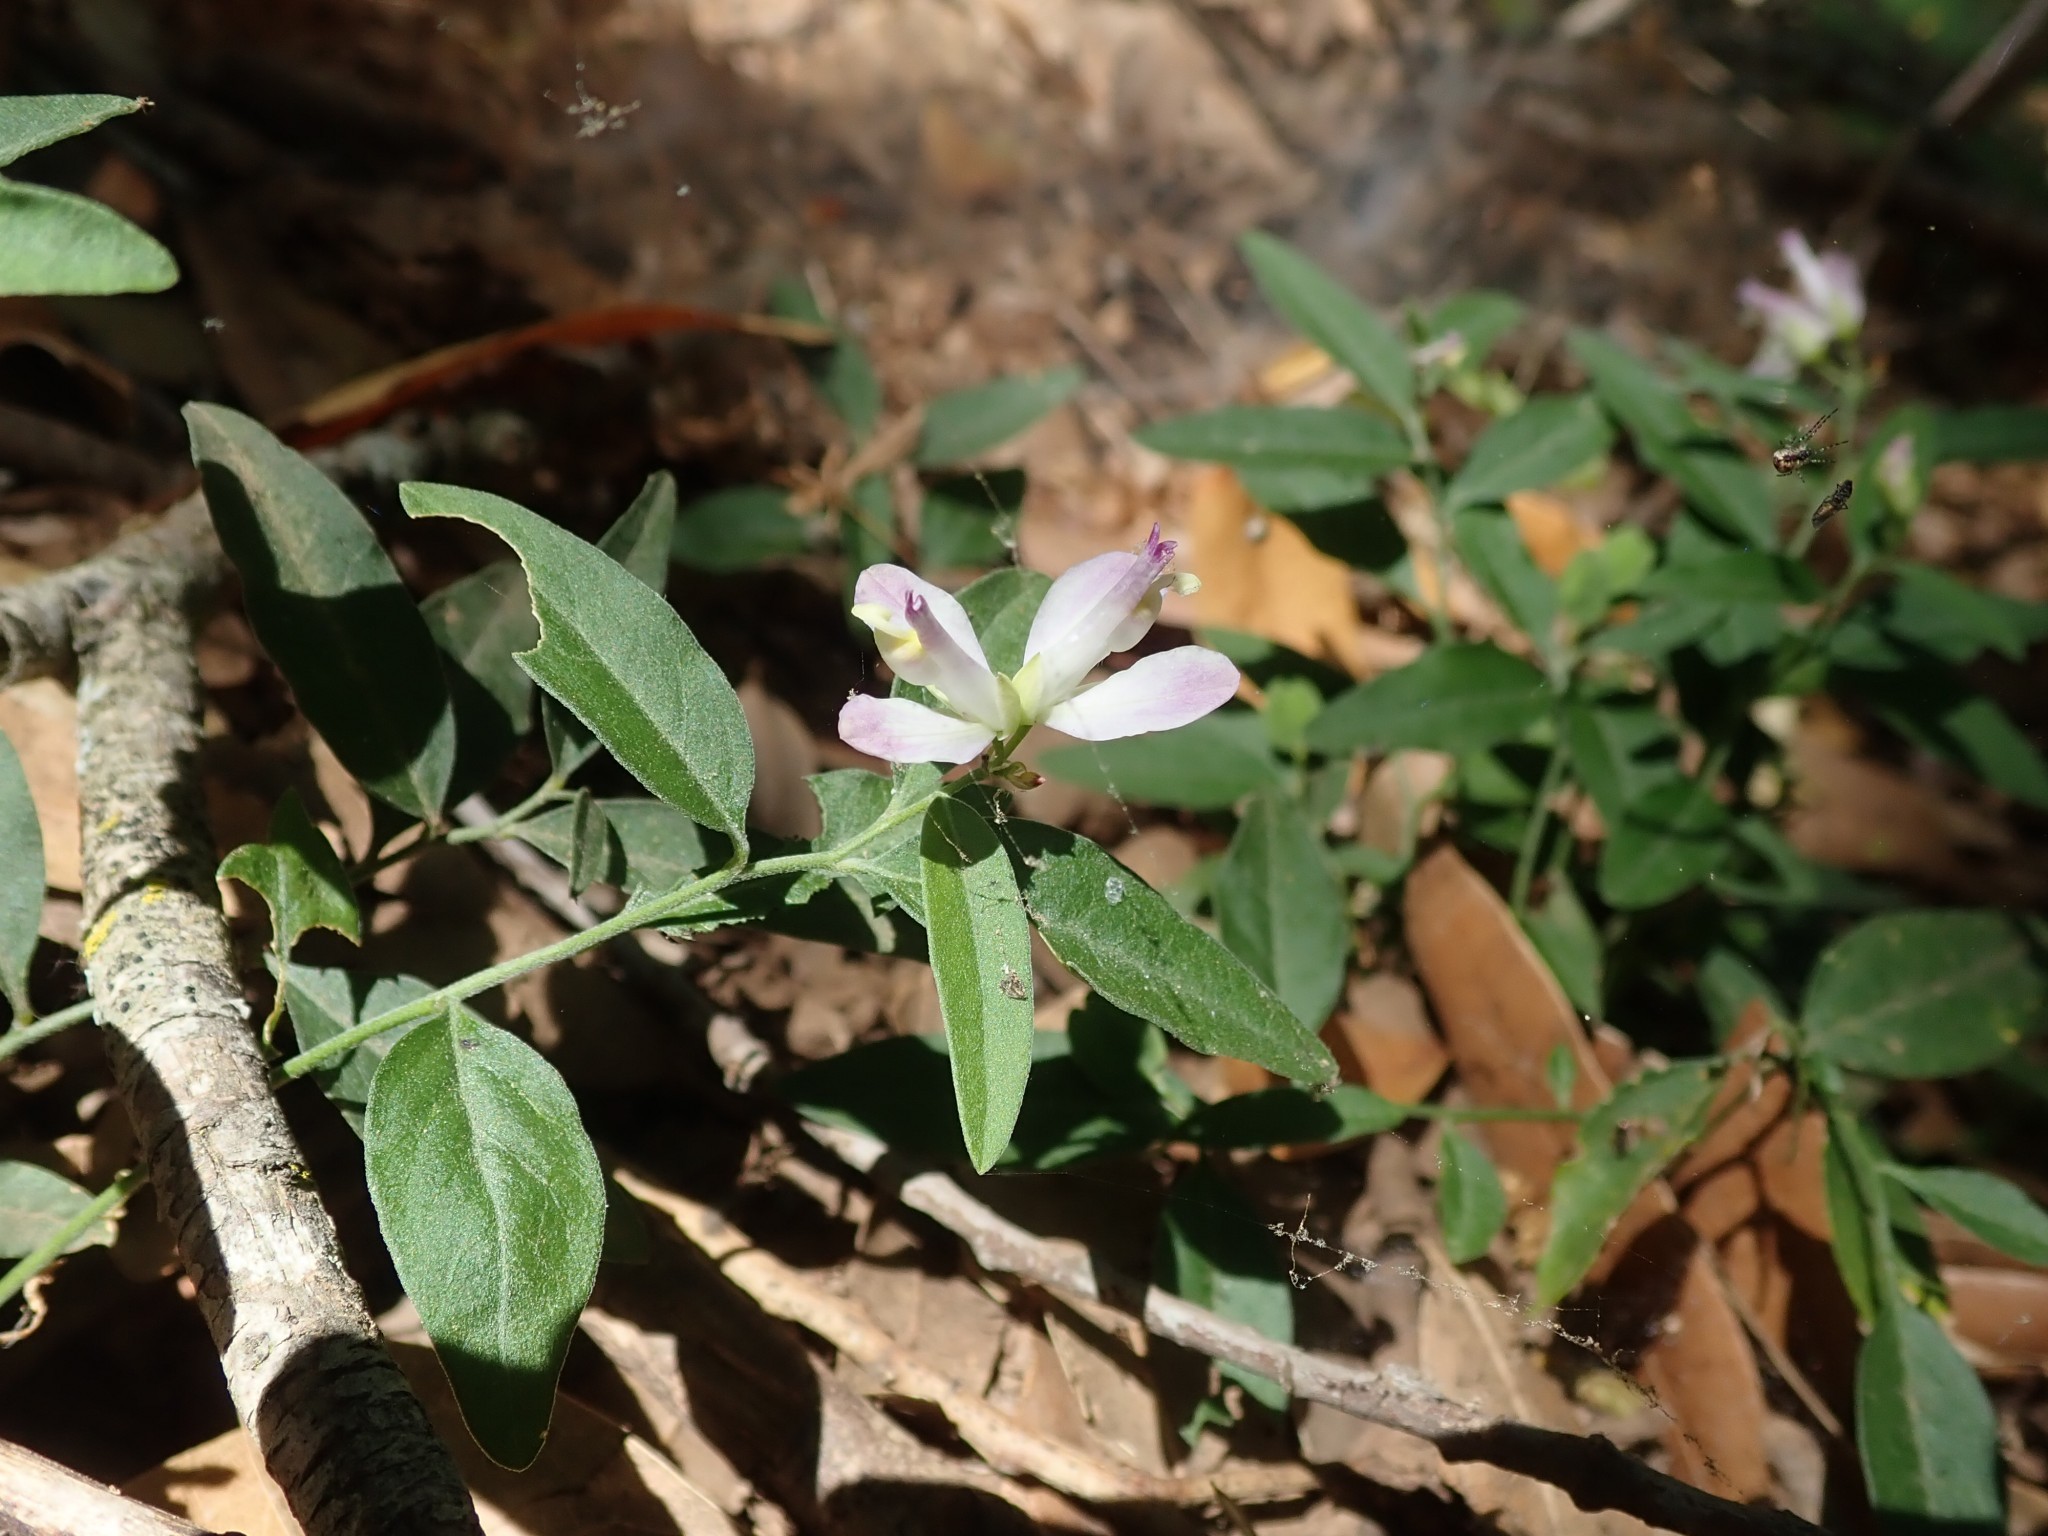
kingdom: Plantae
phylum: Tracheophyta
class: Magnoliopsida
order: Fabales
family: Polygalaceae
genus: Rhinotropis
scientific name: Rhinotropis californica
